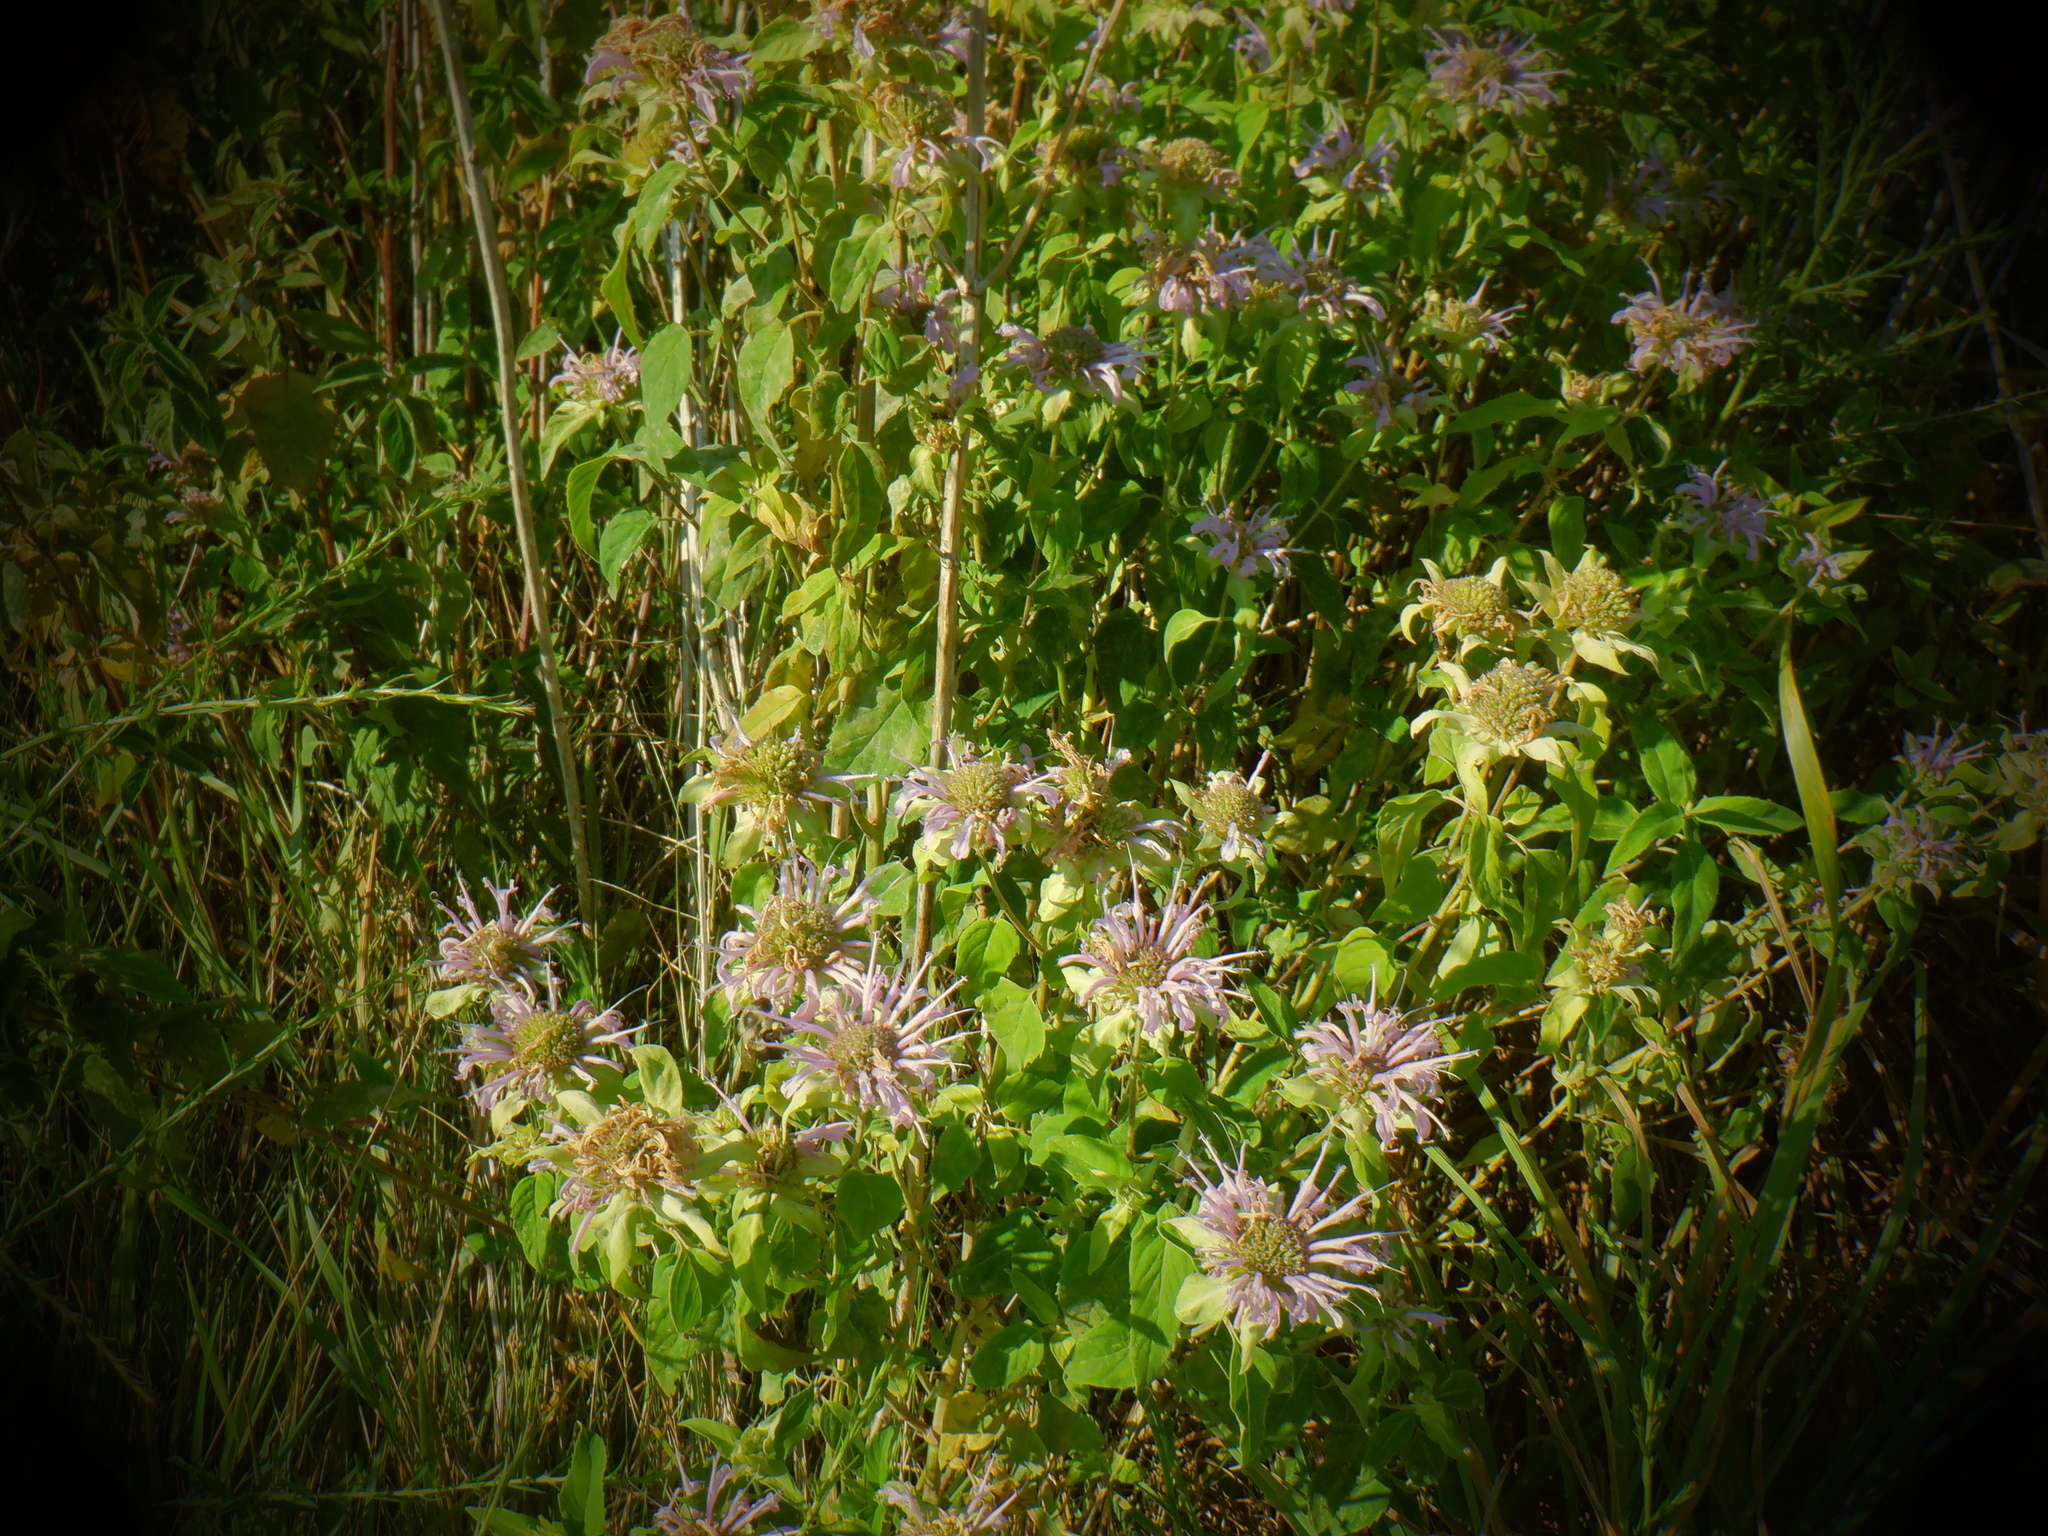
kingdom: Plantae
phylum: Tracheophyta
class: Magnoliopsida
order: Lamiales
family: Lamiaceae
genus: Monarda
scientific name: Monarda fistulosa
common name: Purple beebalm
